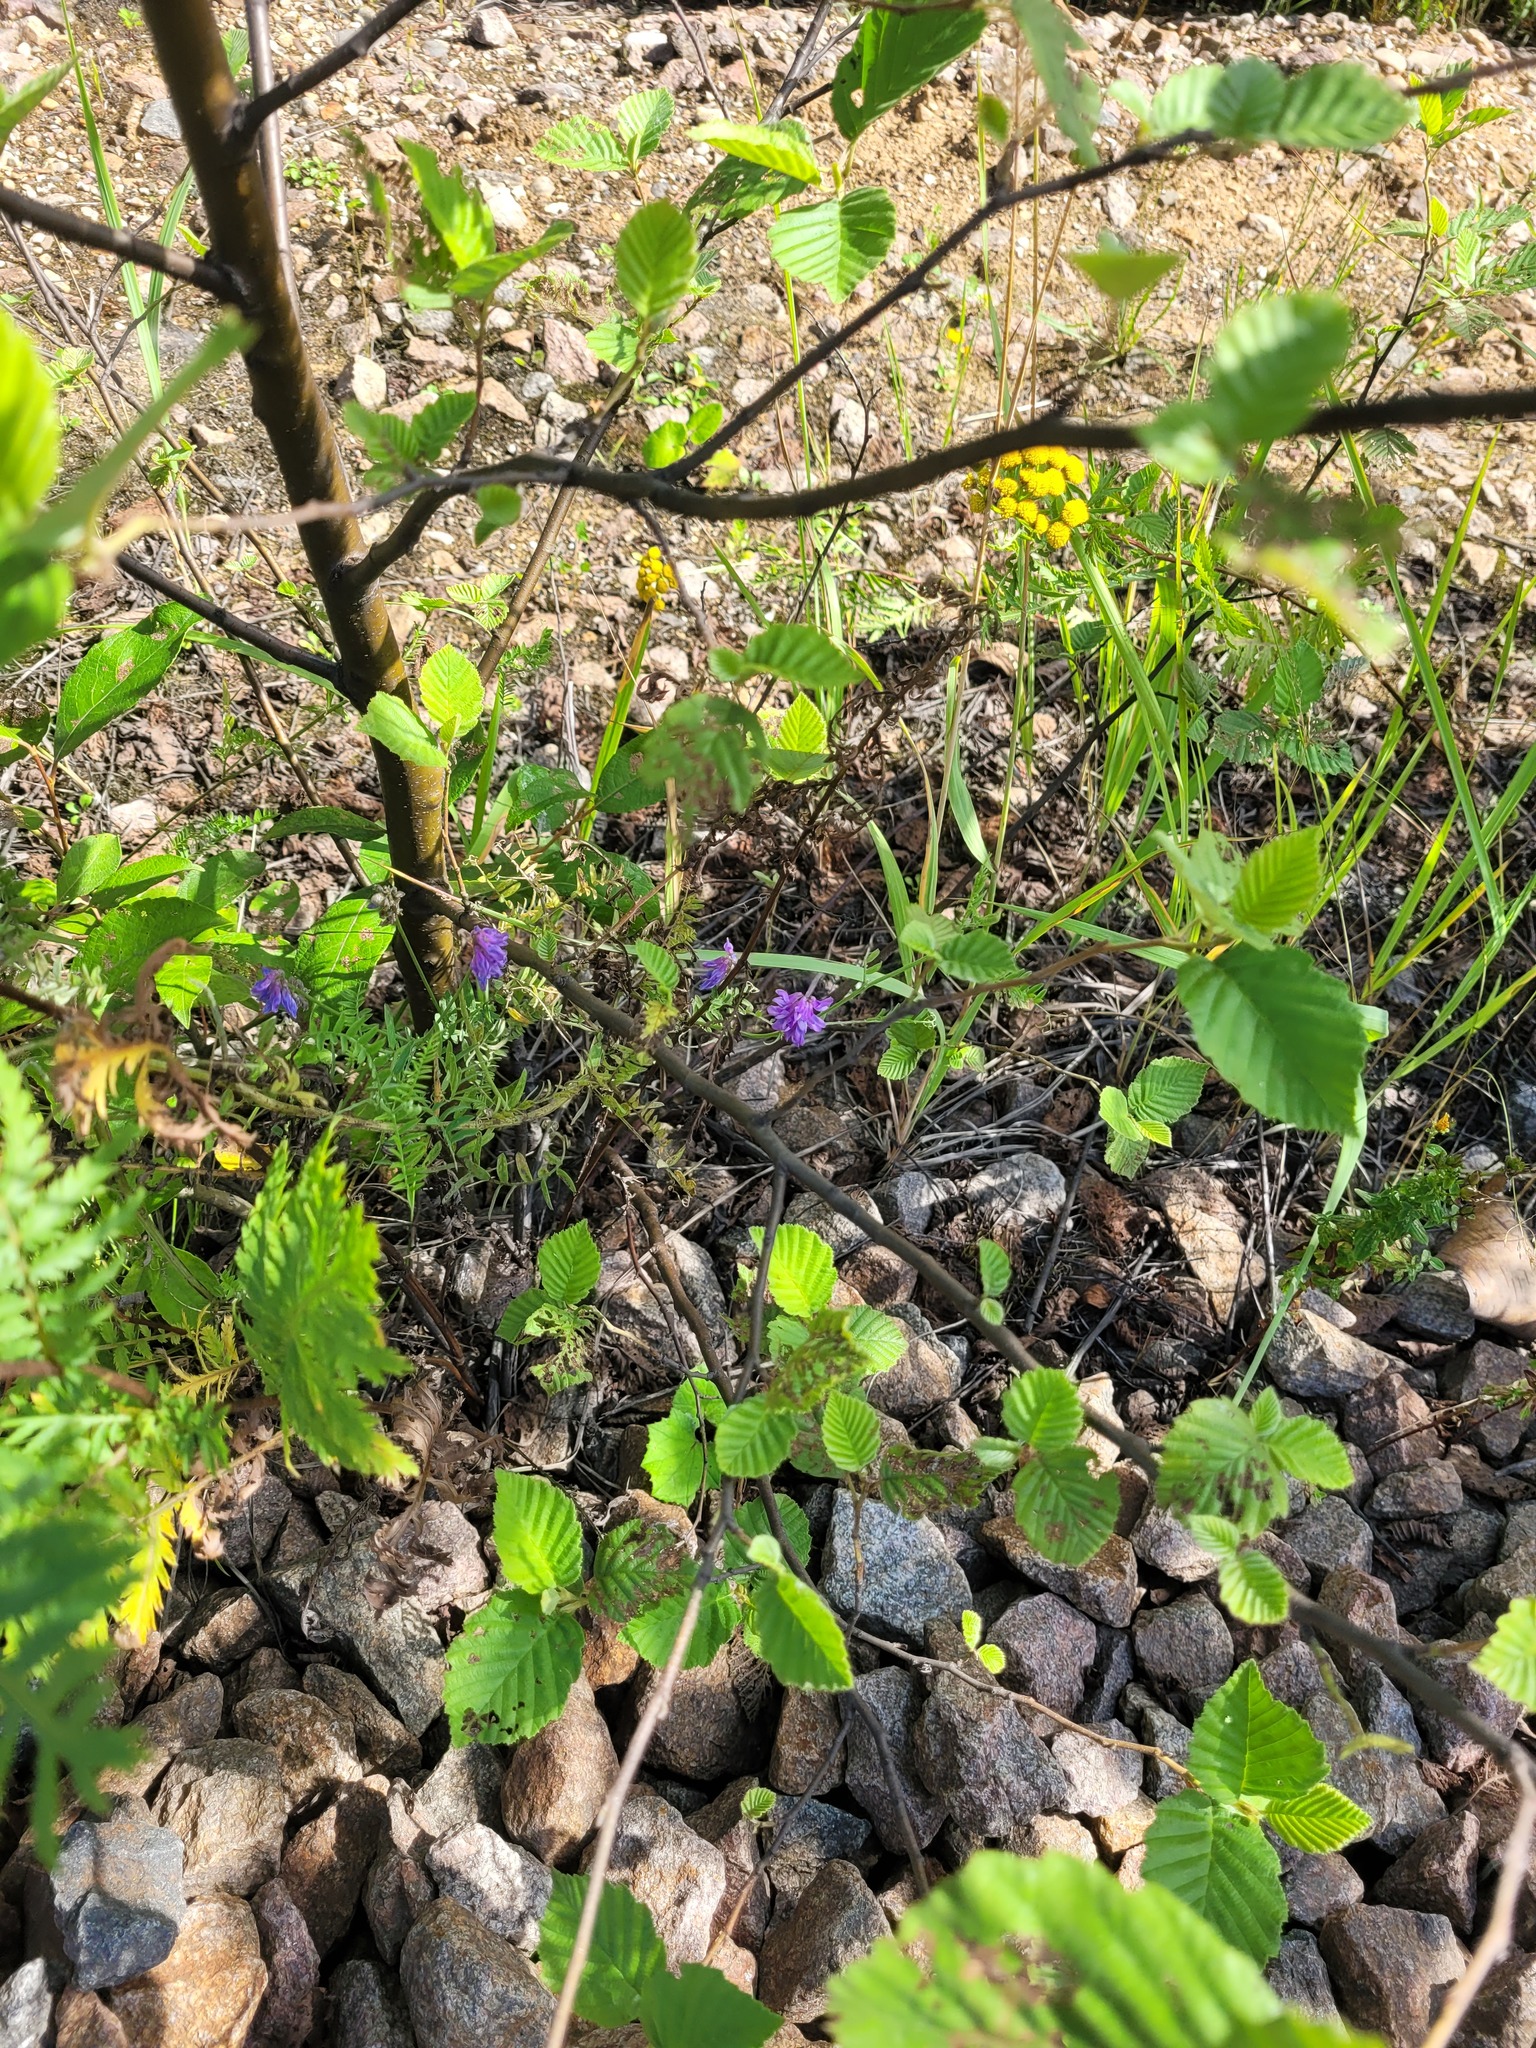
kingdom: Plantae
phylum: Tracheophyta
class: Magnoliopsida
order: Fabales
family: Fabaceae
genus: Vicia
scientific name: Vicia cracca
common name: Bird vetch
